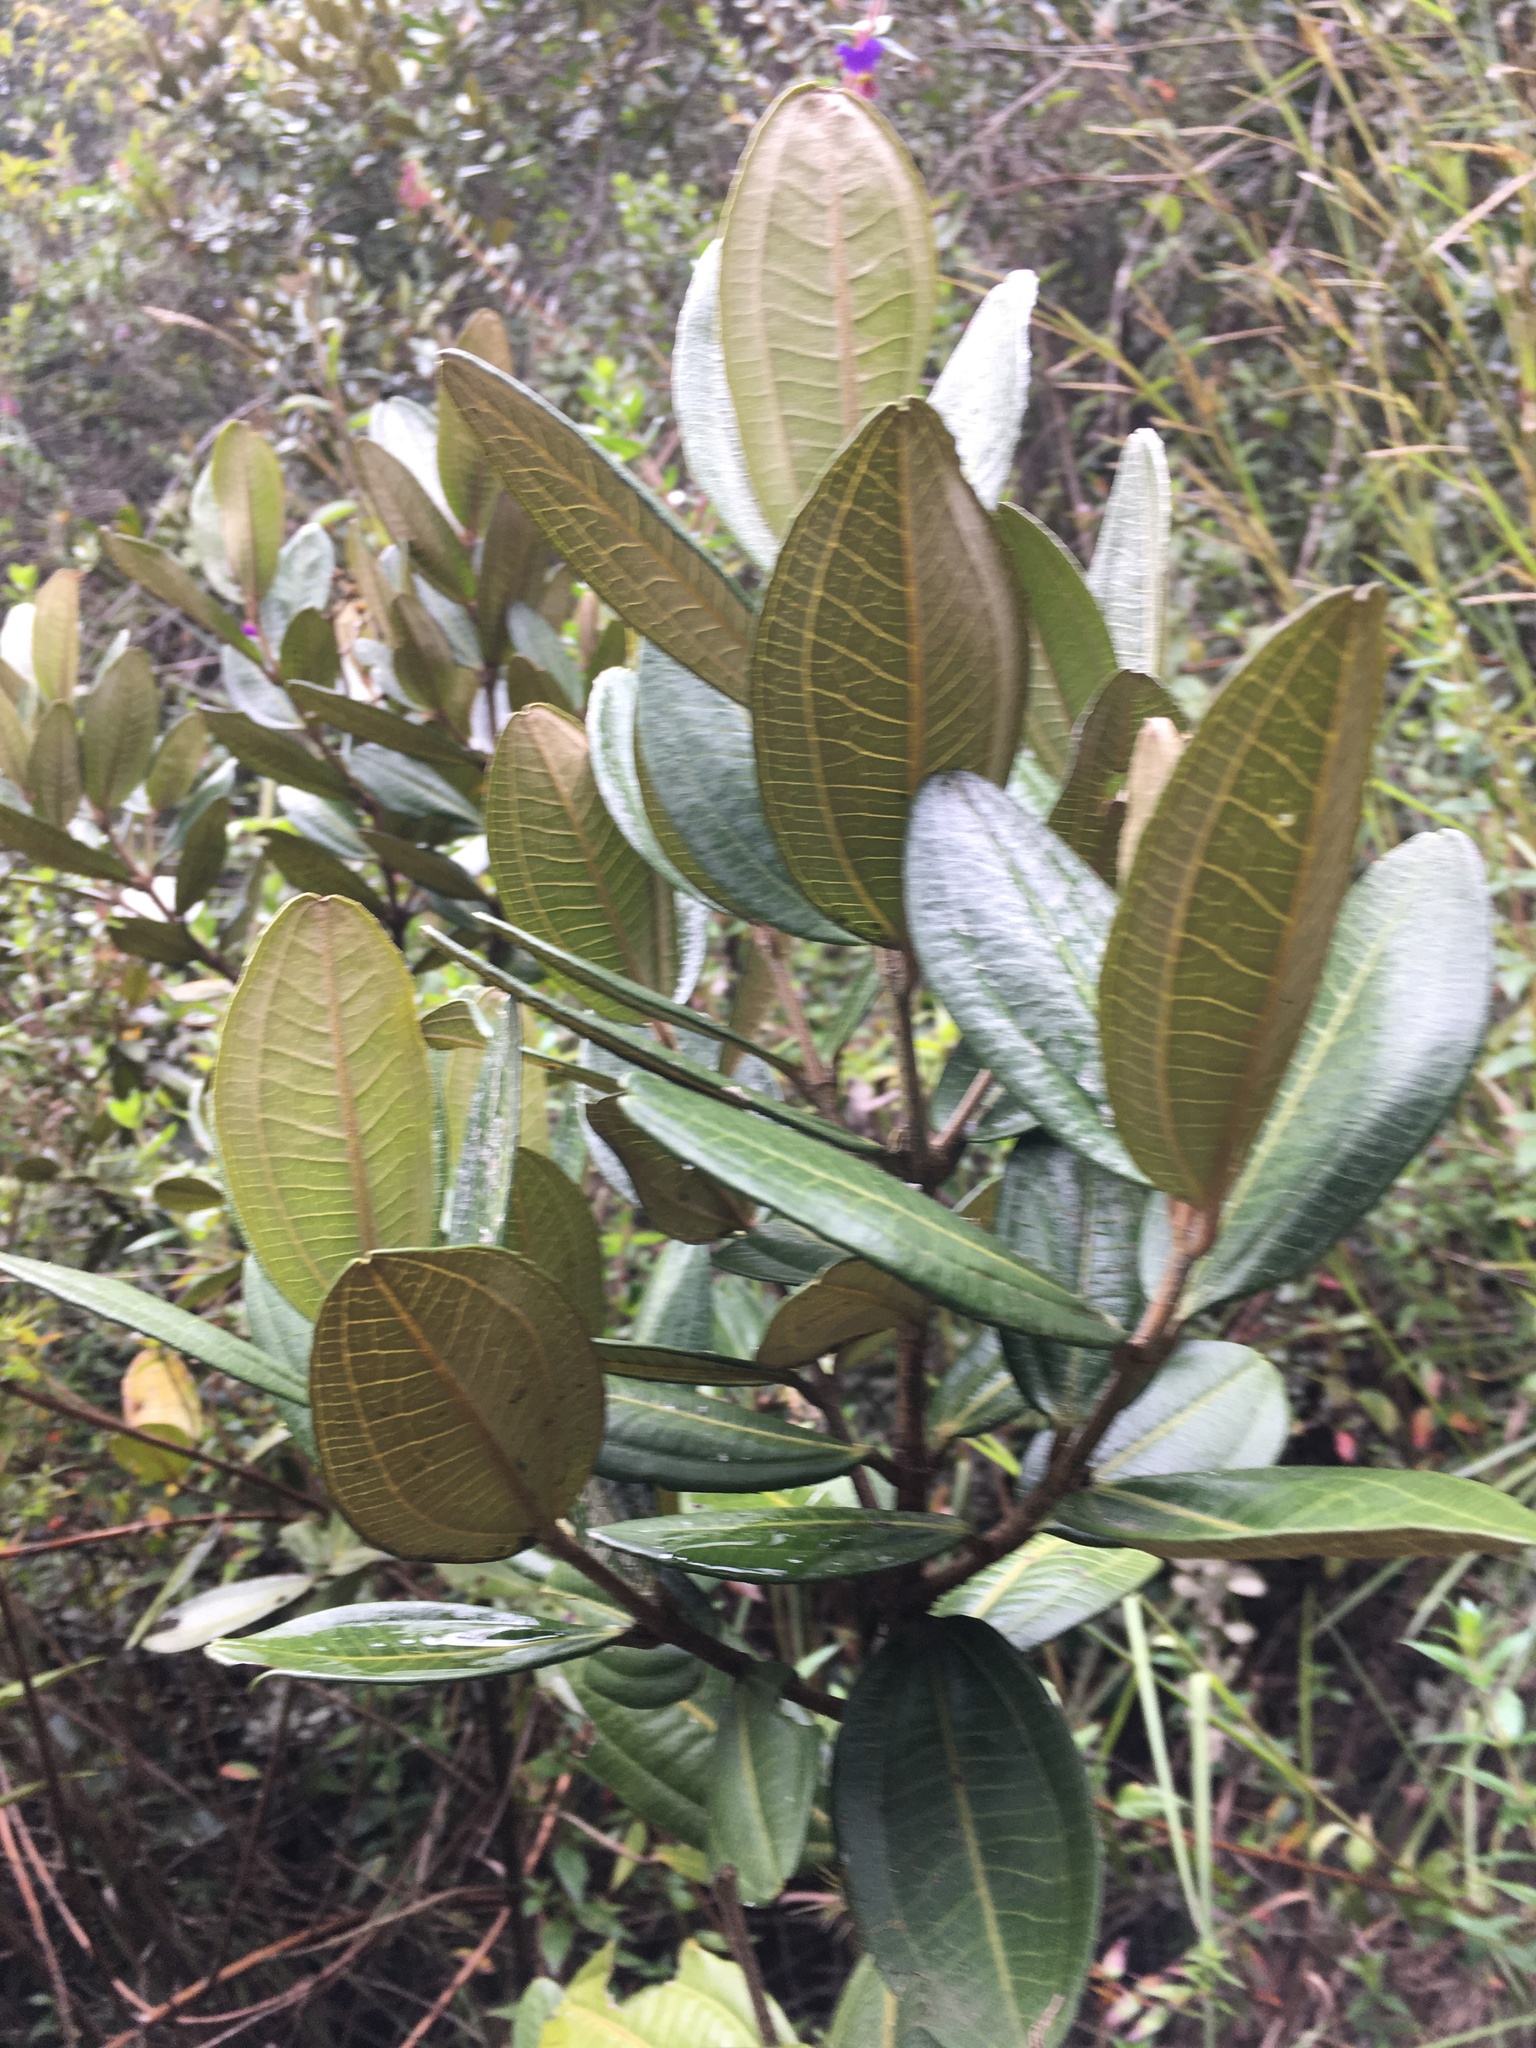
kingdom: Plantae
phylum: Tracheophyta
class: Magnoliopsida
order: Myrtales
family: Melastomataceae
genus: Miconia
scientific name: Miconia squamulosa
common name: Squamulose maya
